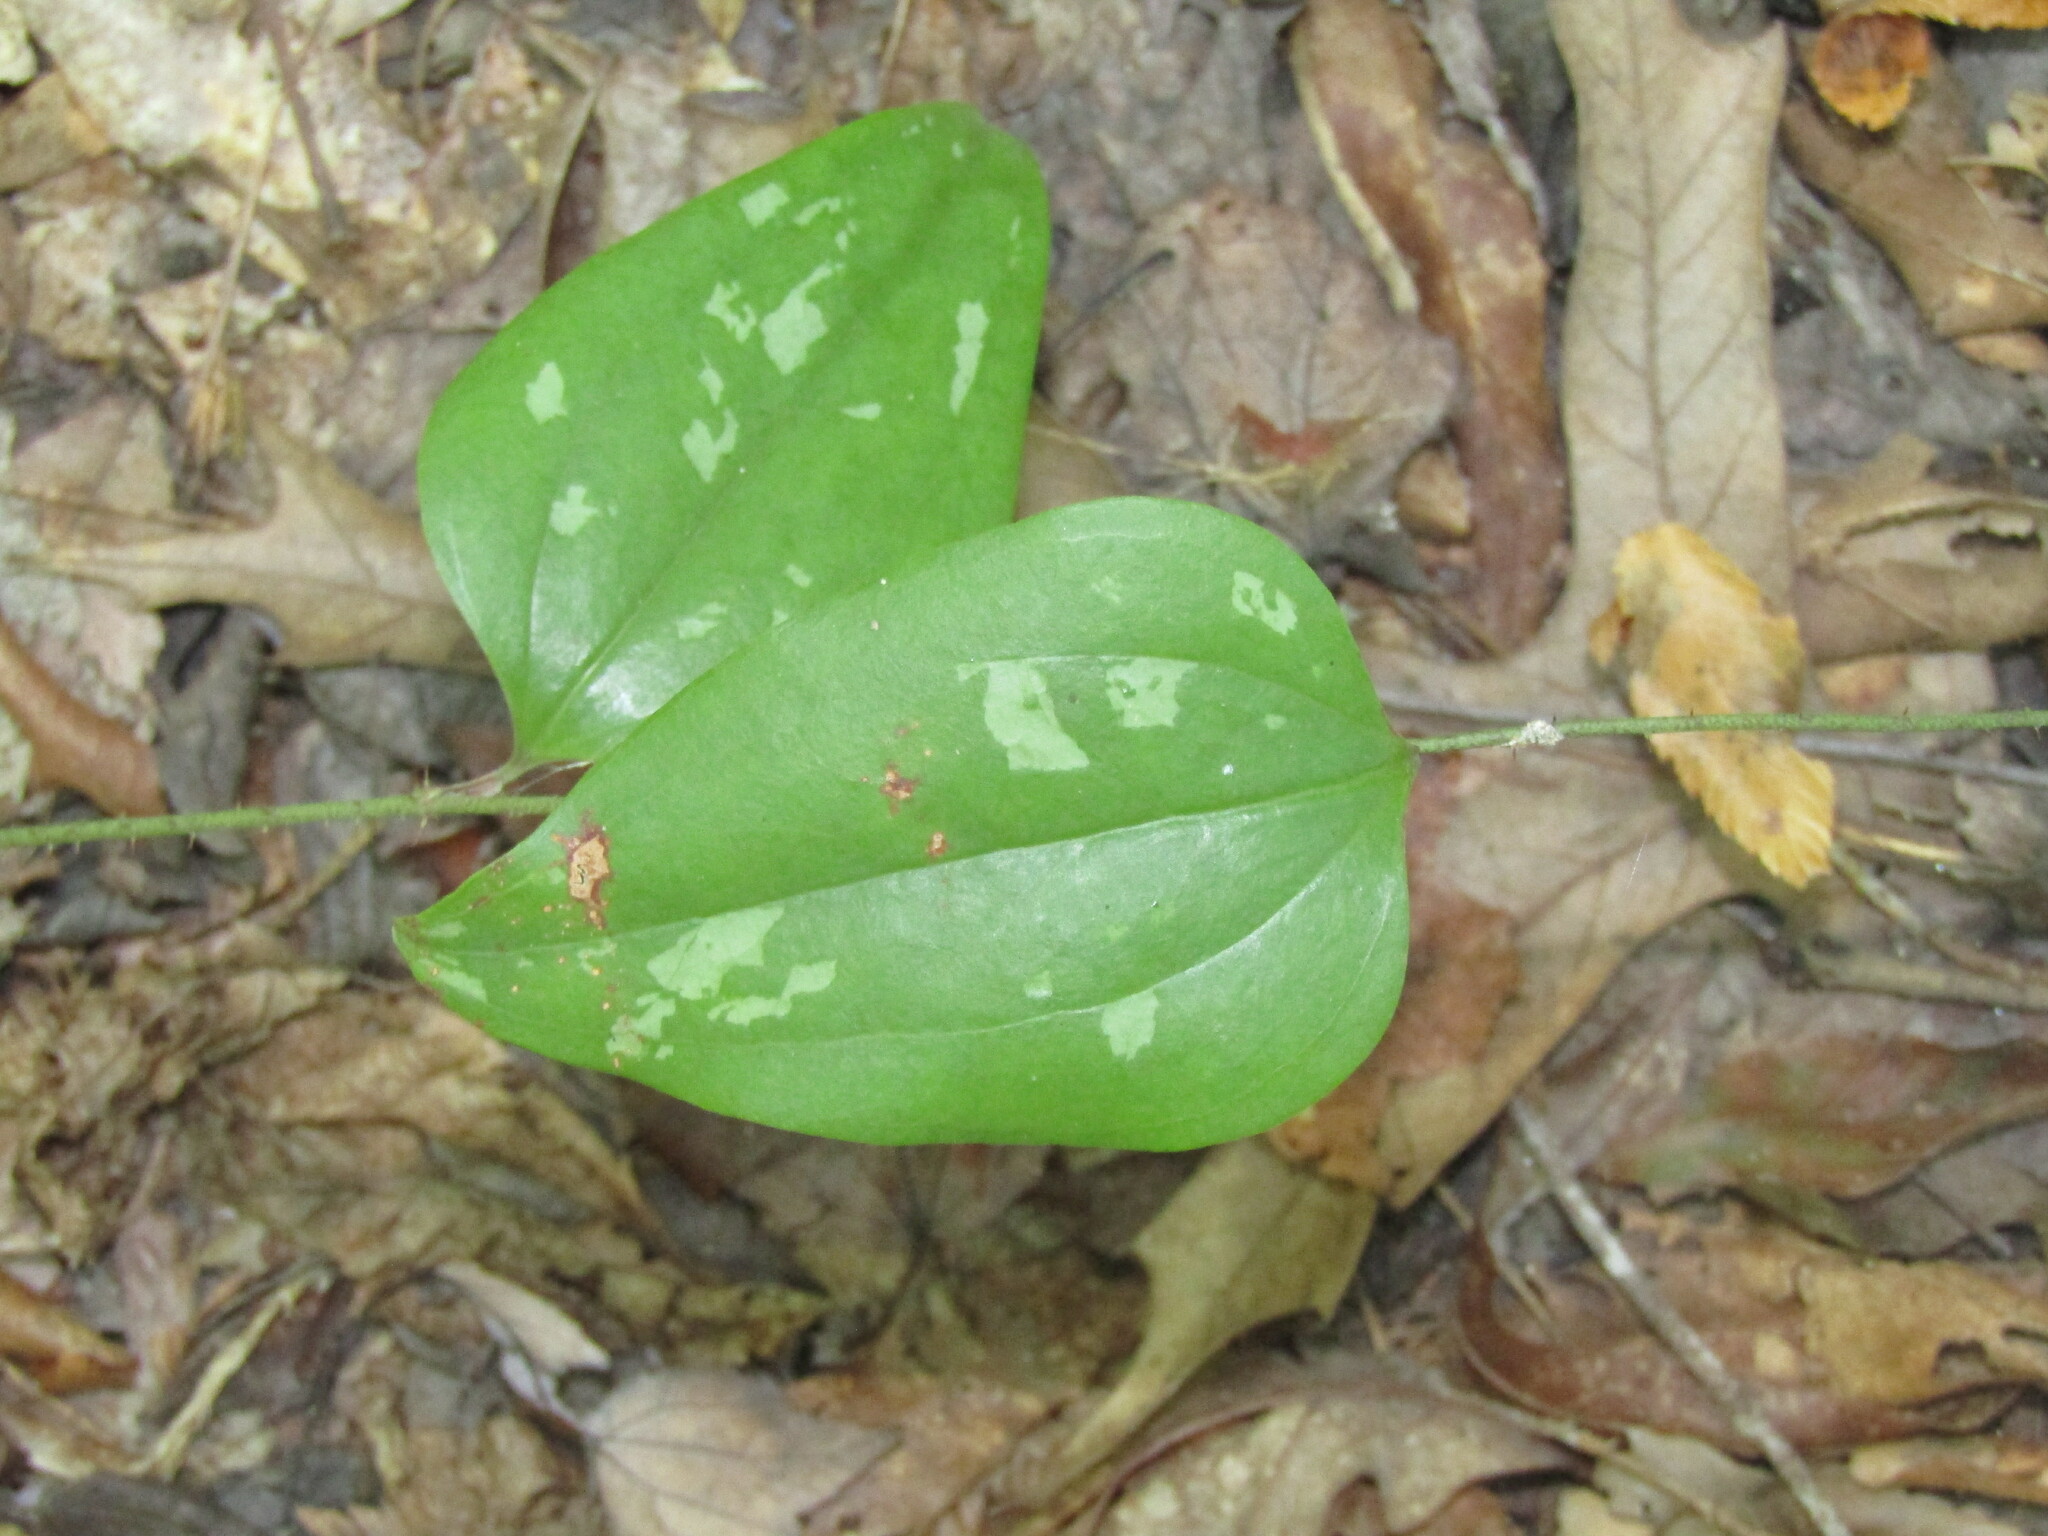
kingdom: Plantae
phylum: Tracheophyta
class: Liliopsida
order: Liliales
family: Smilacaceae
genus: Smilax
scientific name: Smilax glauca
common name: Cat greenbrier
